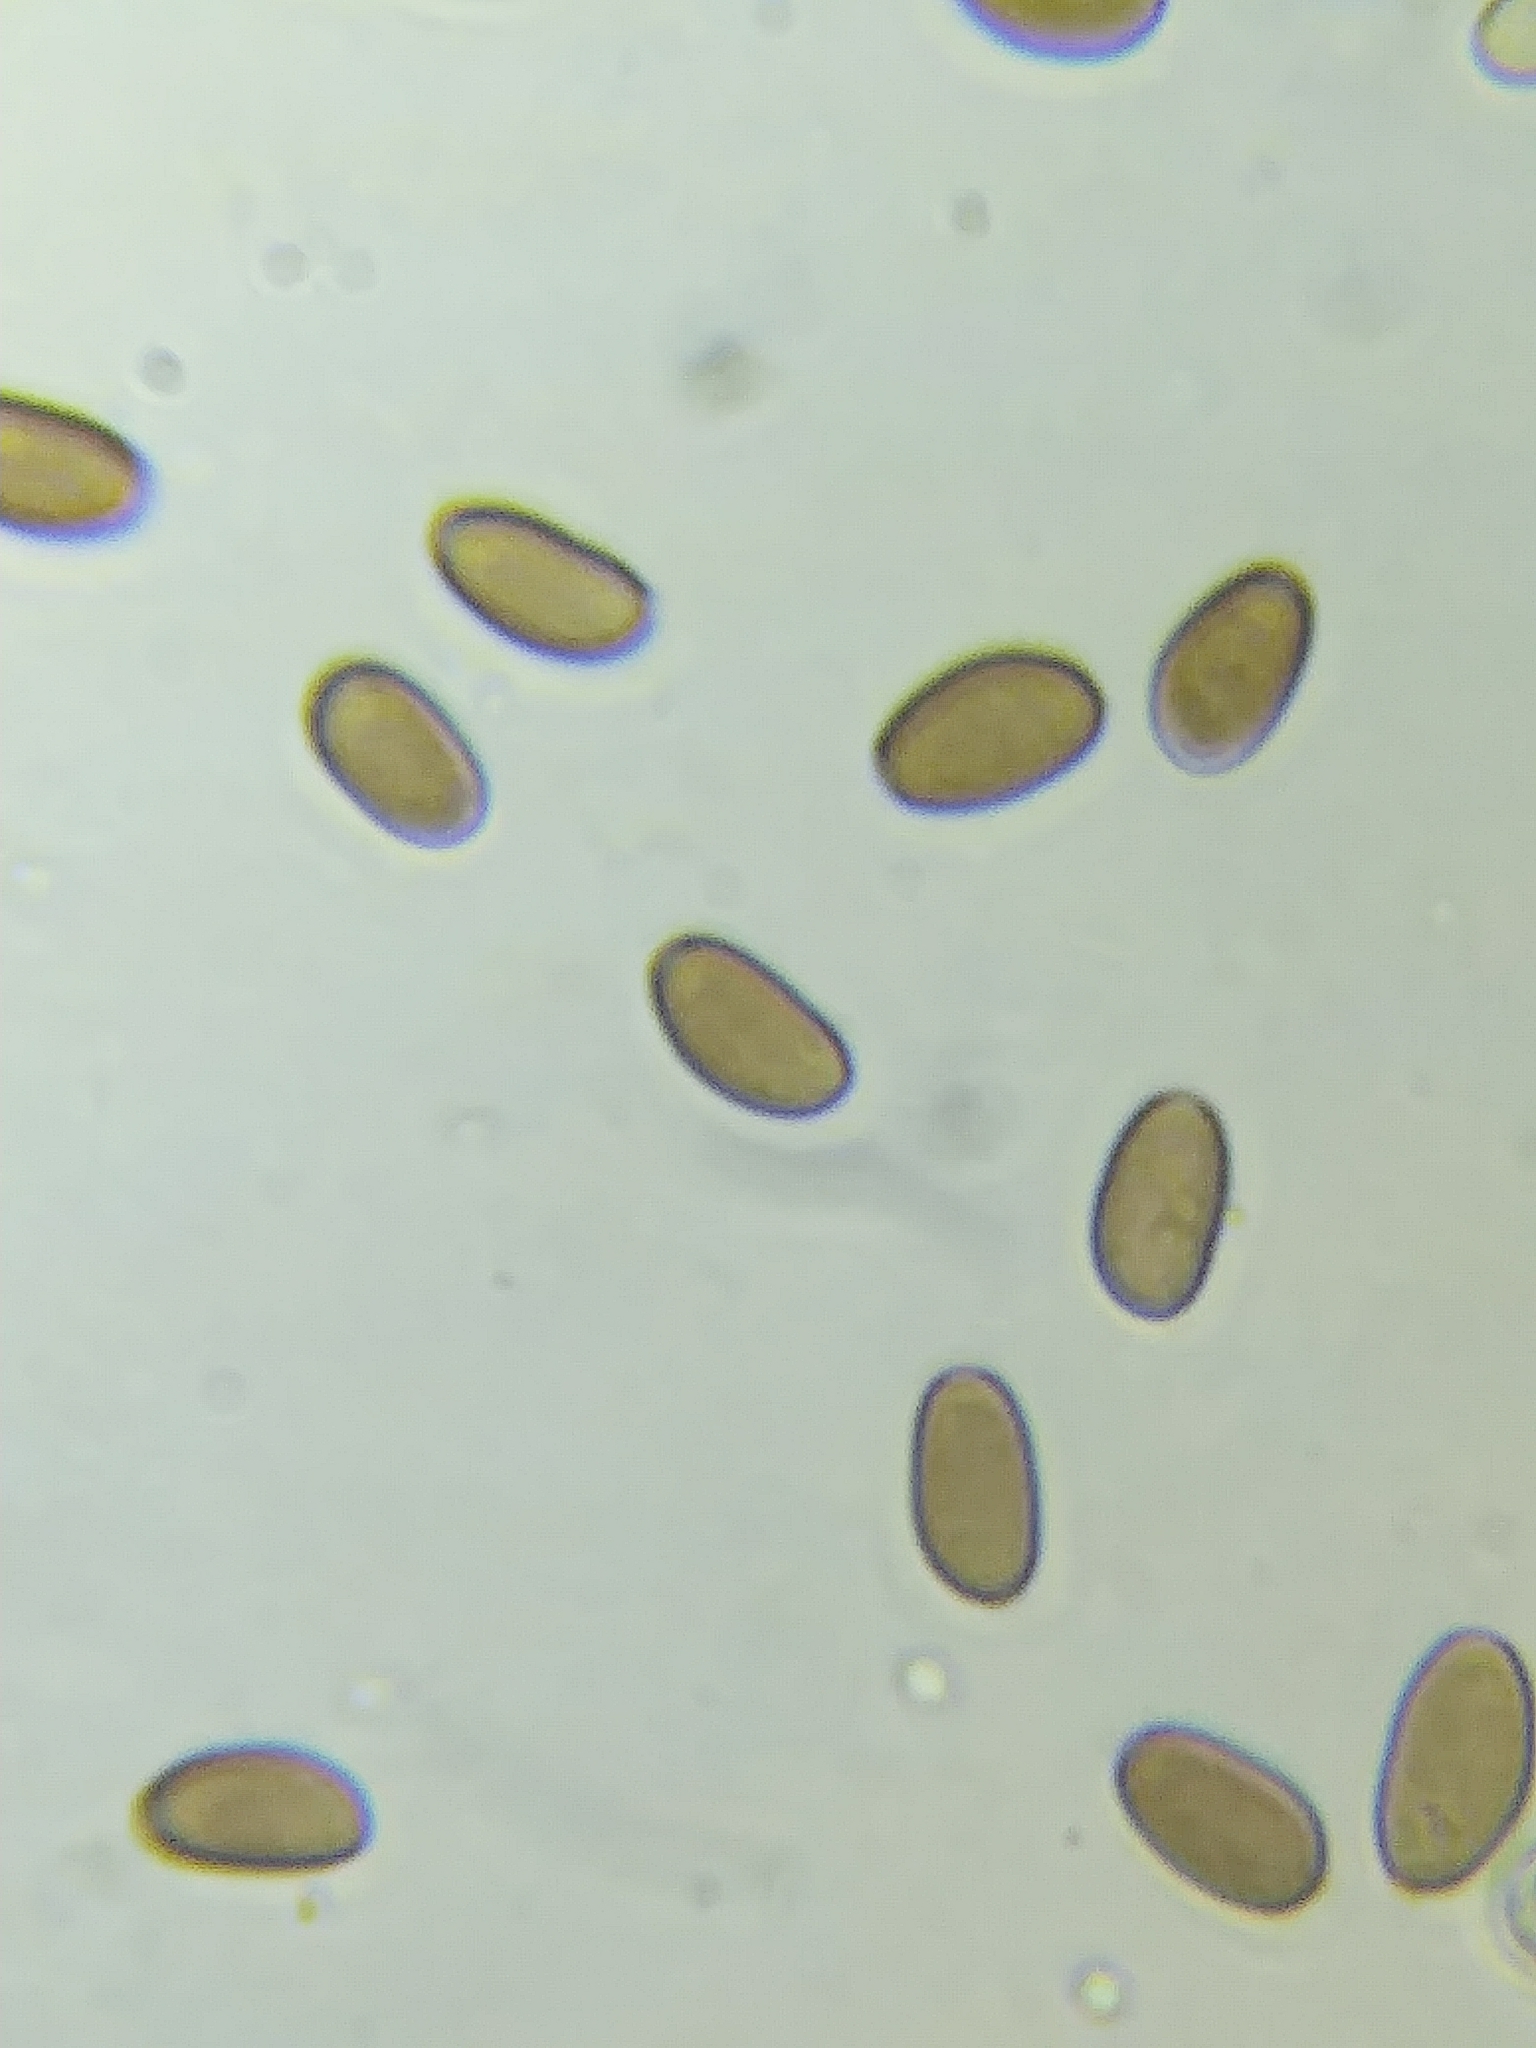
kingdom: Fungi
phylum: Basidiomycota
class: Agaricomycetes
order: Agaricales
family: Psathyrellaceae
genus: Candolleomyces
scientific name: Candolleomyces candolleanus
